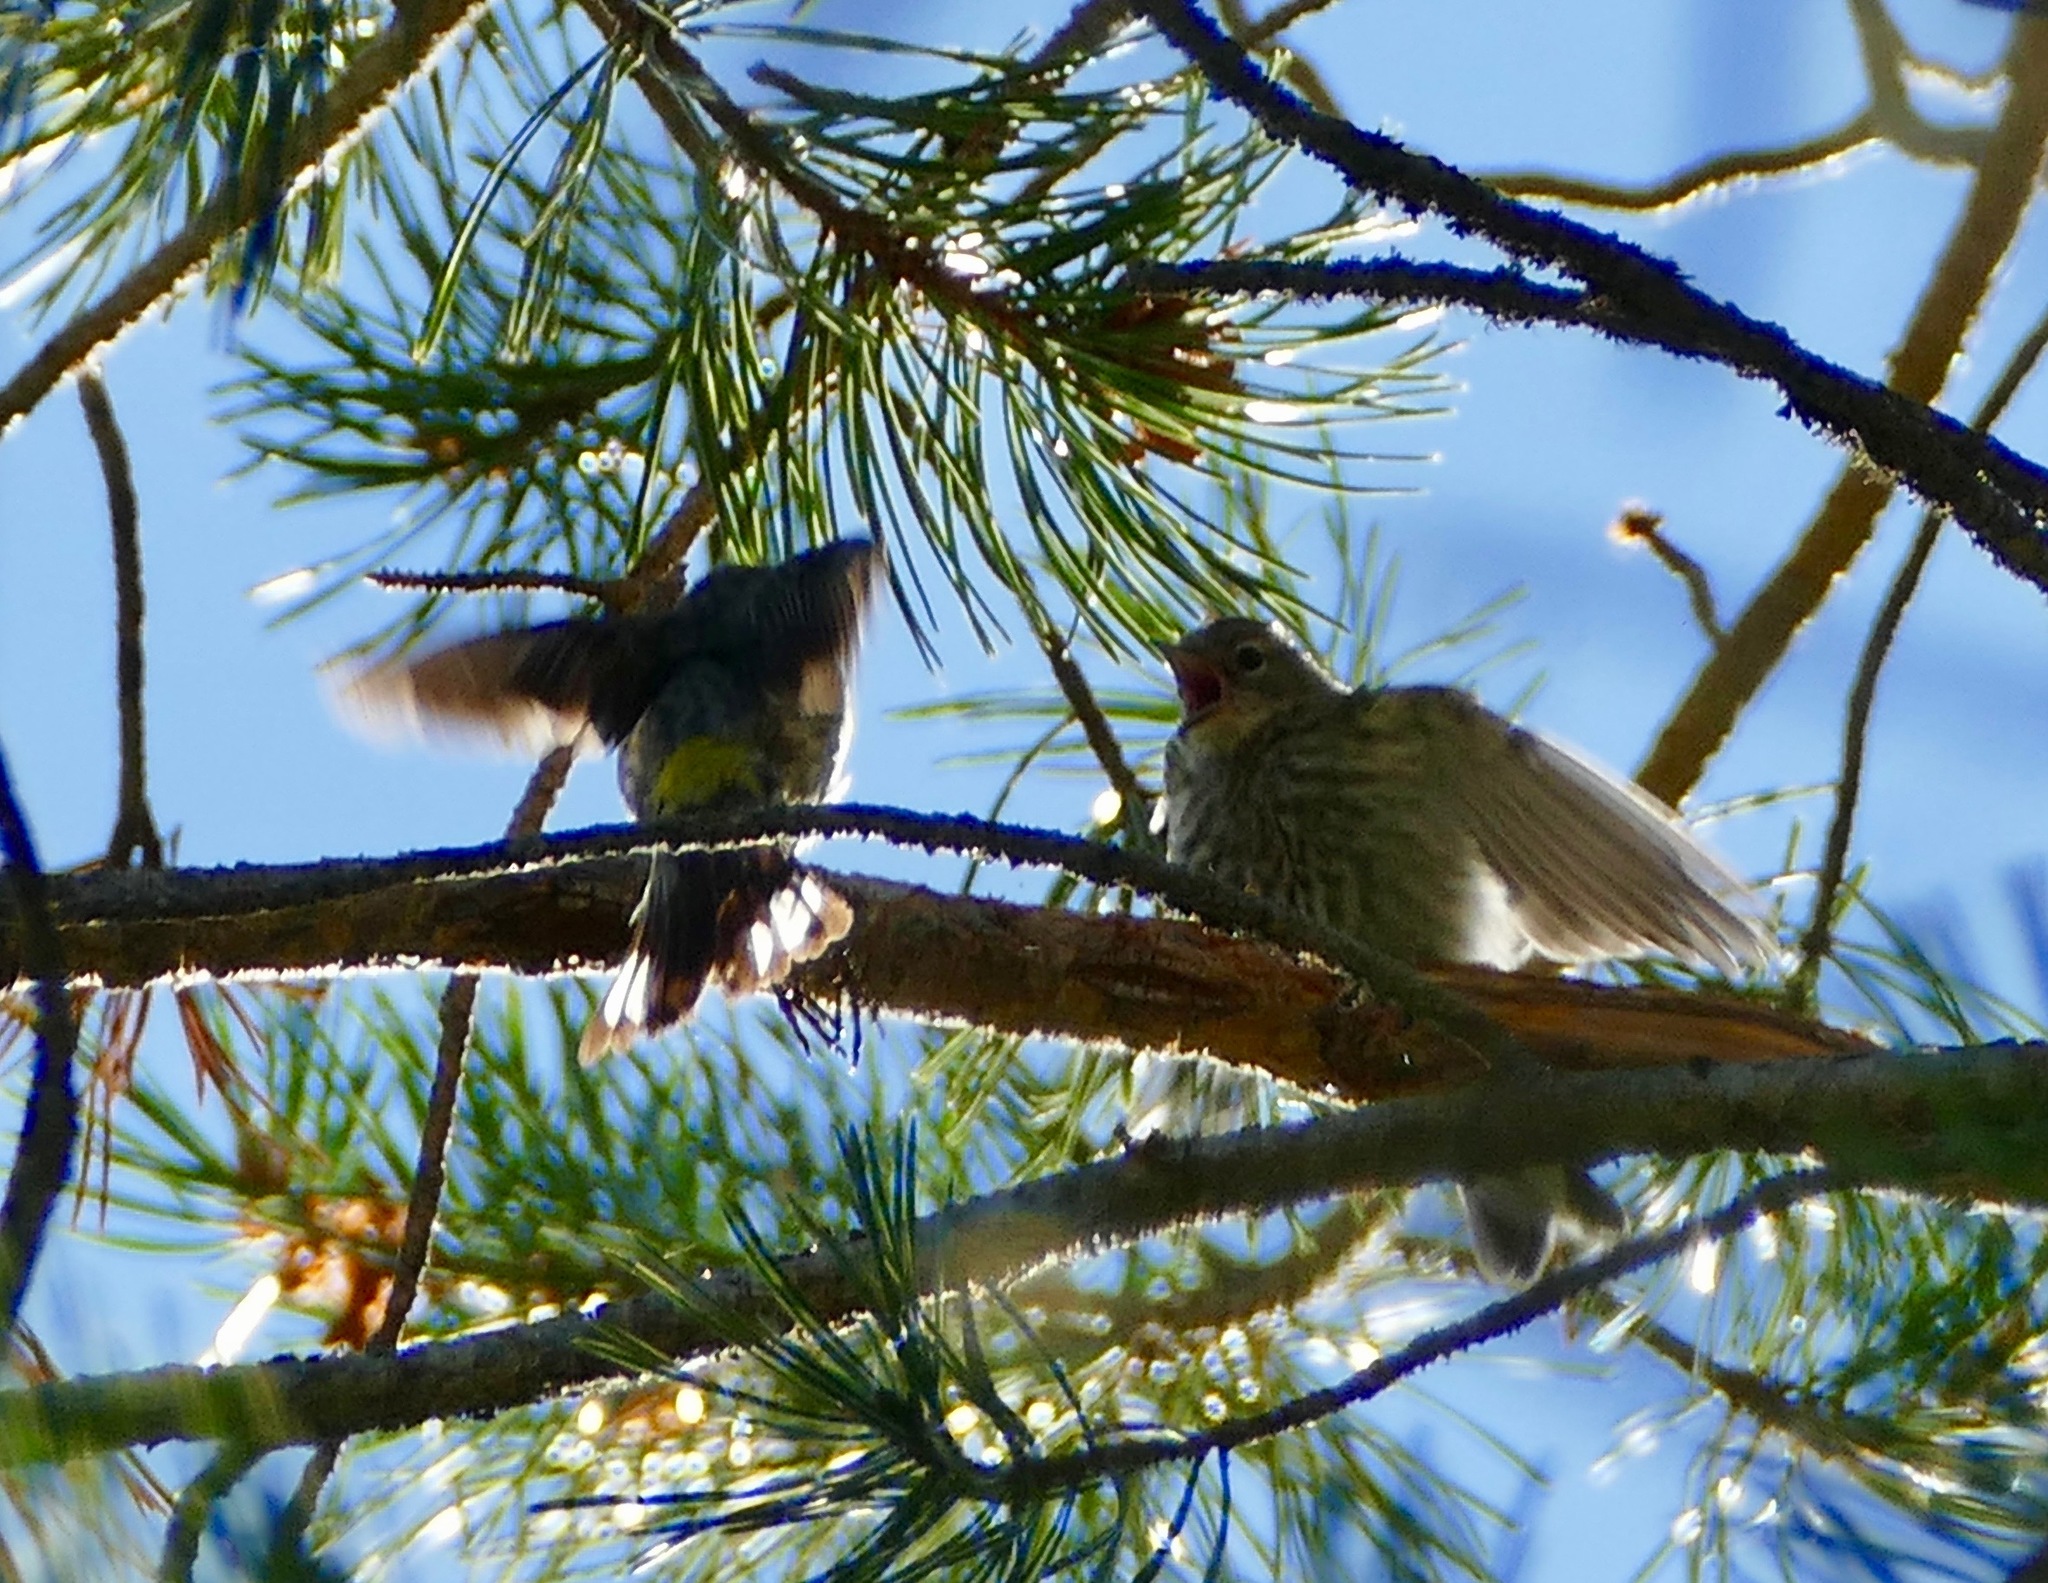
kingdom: Animalia
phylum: Chordata
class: Aves
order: Passeriformes
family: Parulidae
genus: Setophaga
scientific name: Setophaga coronata
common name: Myrtle warbler
